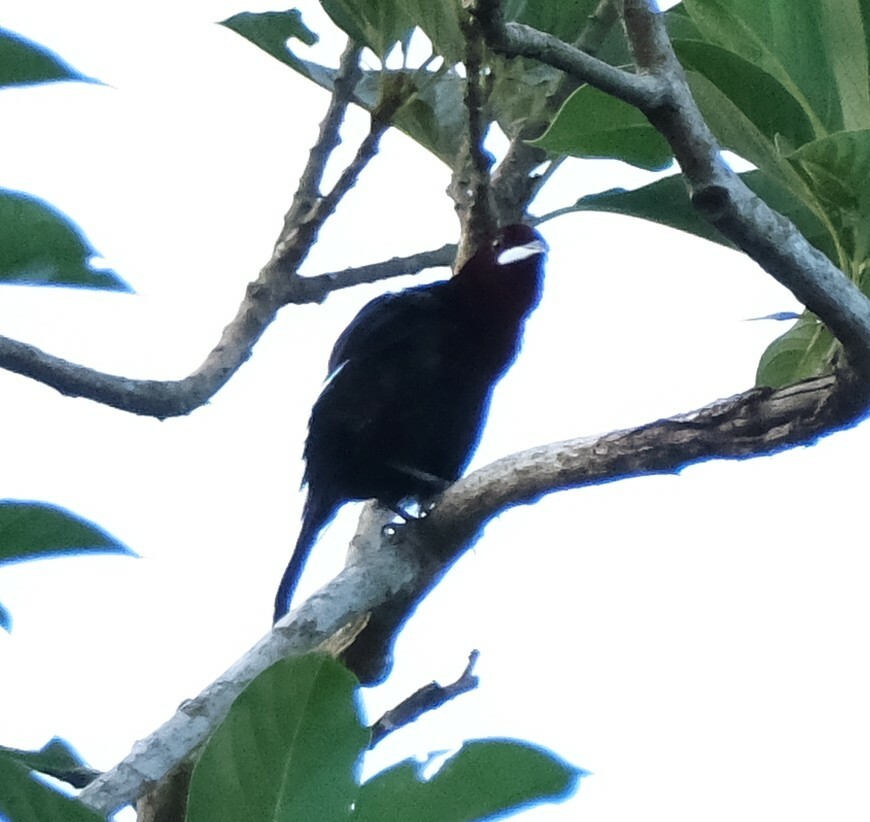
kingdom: Animalia
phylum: Chordata
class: Aves
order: Passeriformes
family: Thraupidae
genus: Ramphocelus
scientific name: Ramphocelus carbo
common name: Silver-beaked tanager
